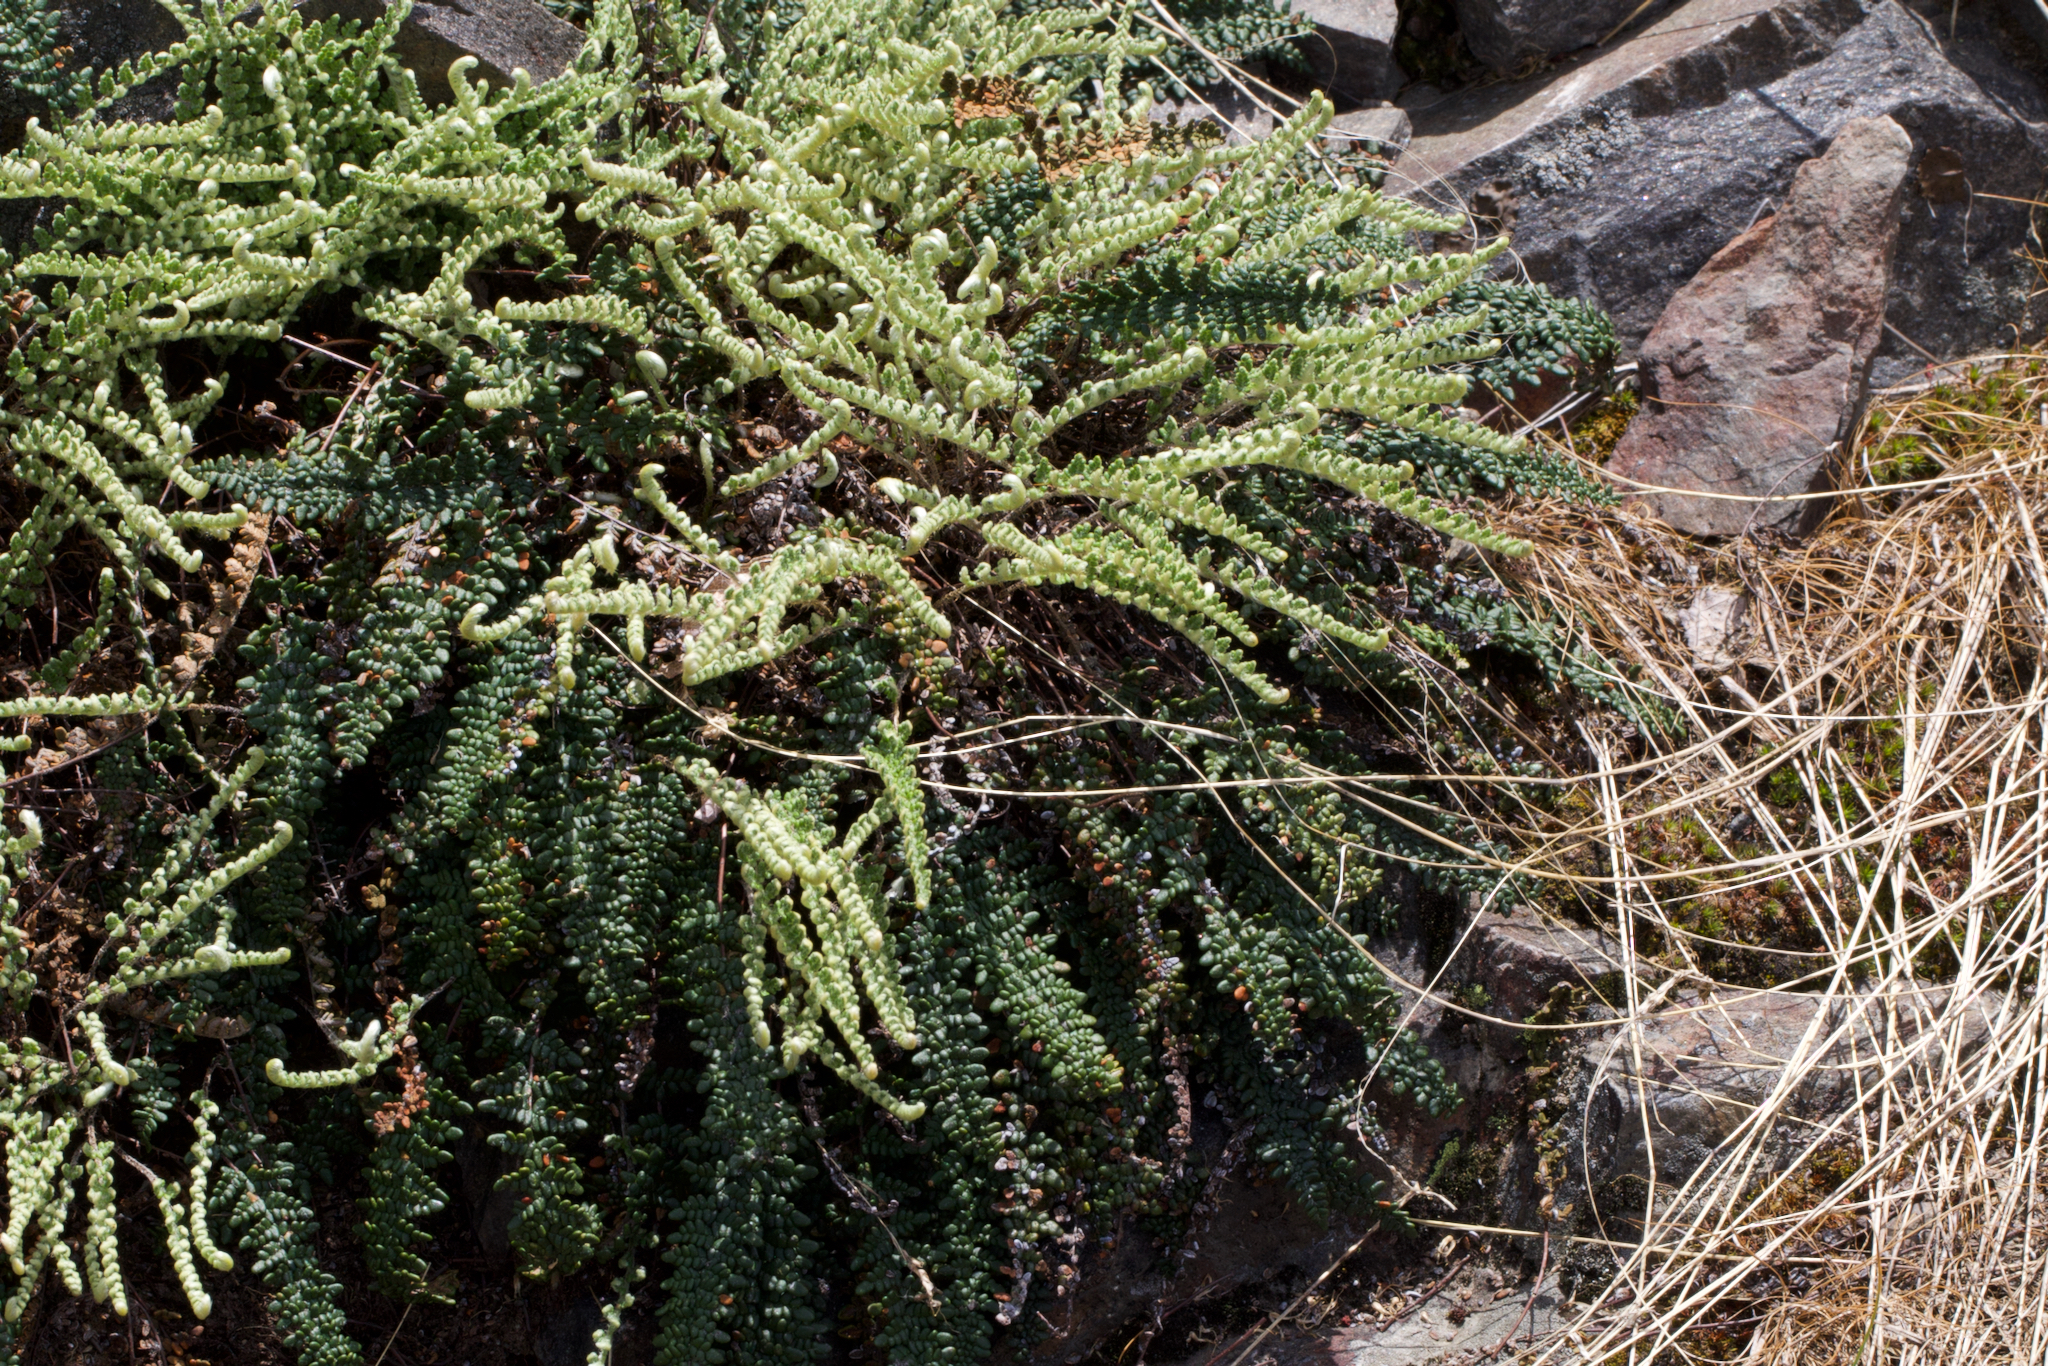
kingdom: Plantae
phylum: Tracheophyta
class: Polypodiopsida
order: Polypodiales
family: Pteridaceae
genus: Myriopteris
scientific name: Myriopteris gracillima
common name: Lace fern
